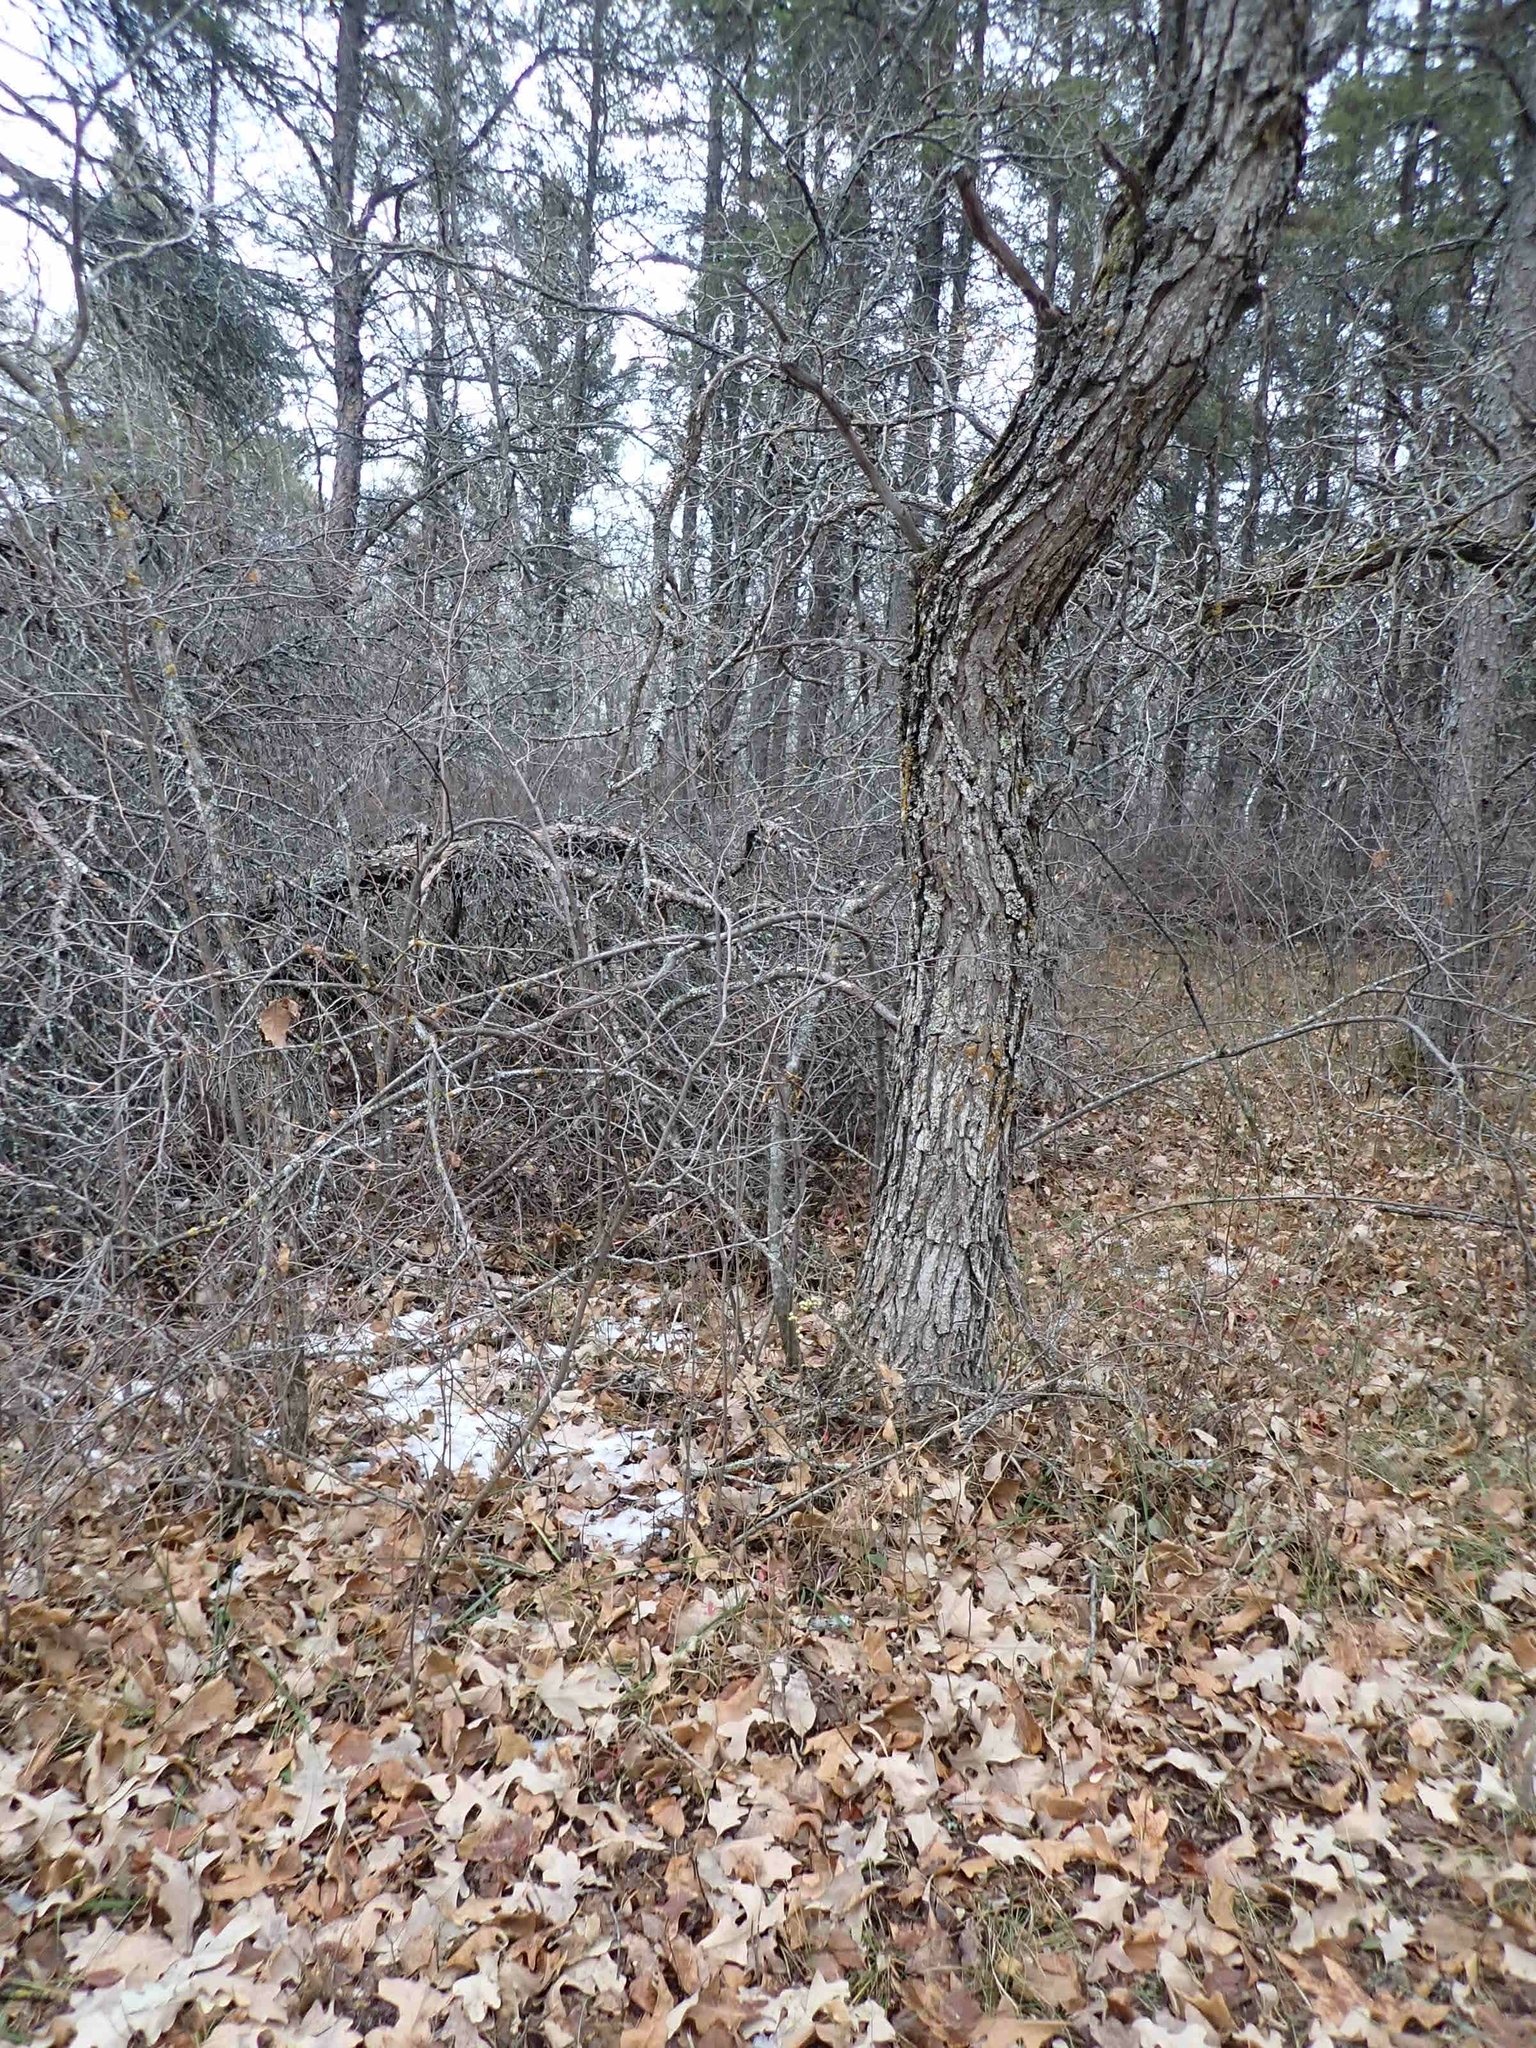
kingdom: Plantae
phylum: Tracheophyta
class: Magnoliopsida
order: Fagales
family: Fagaceae
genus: Quercus
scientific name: Quercus macrocarpa
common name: Bur oak
